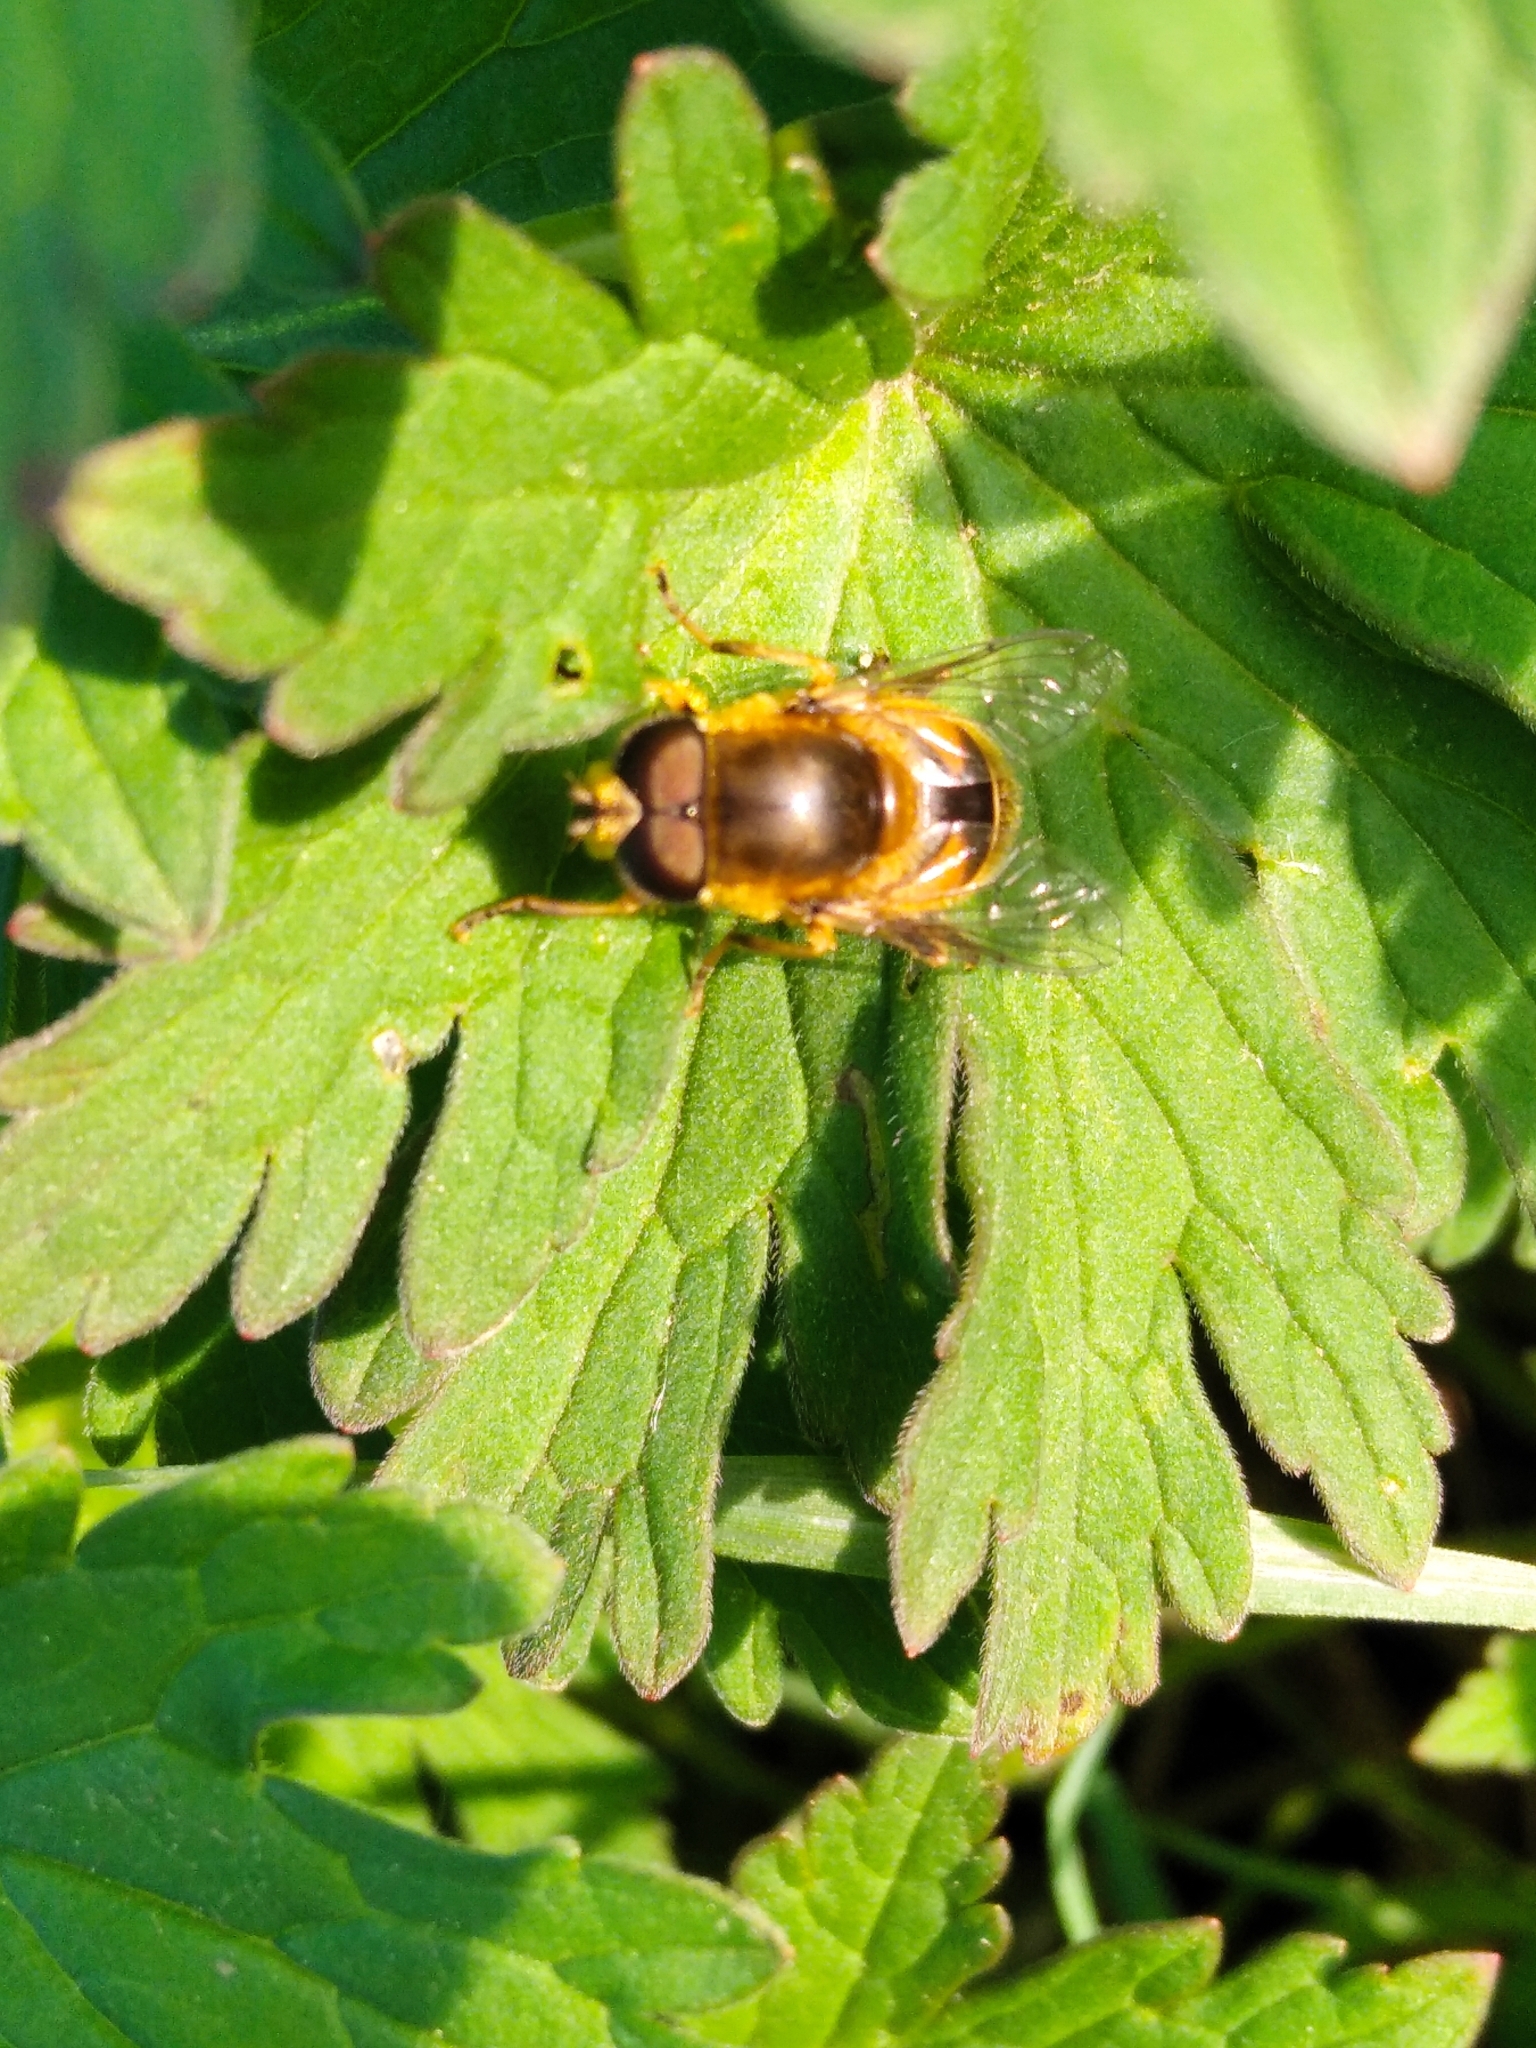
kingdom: Animalia
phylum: Arthropoda
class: Insecta
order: Diptera
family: Syrphidae
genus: Eristalis
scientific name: Eristalis
